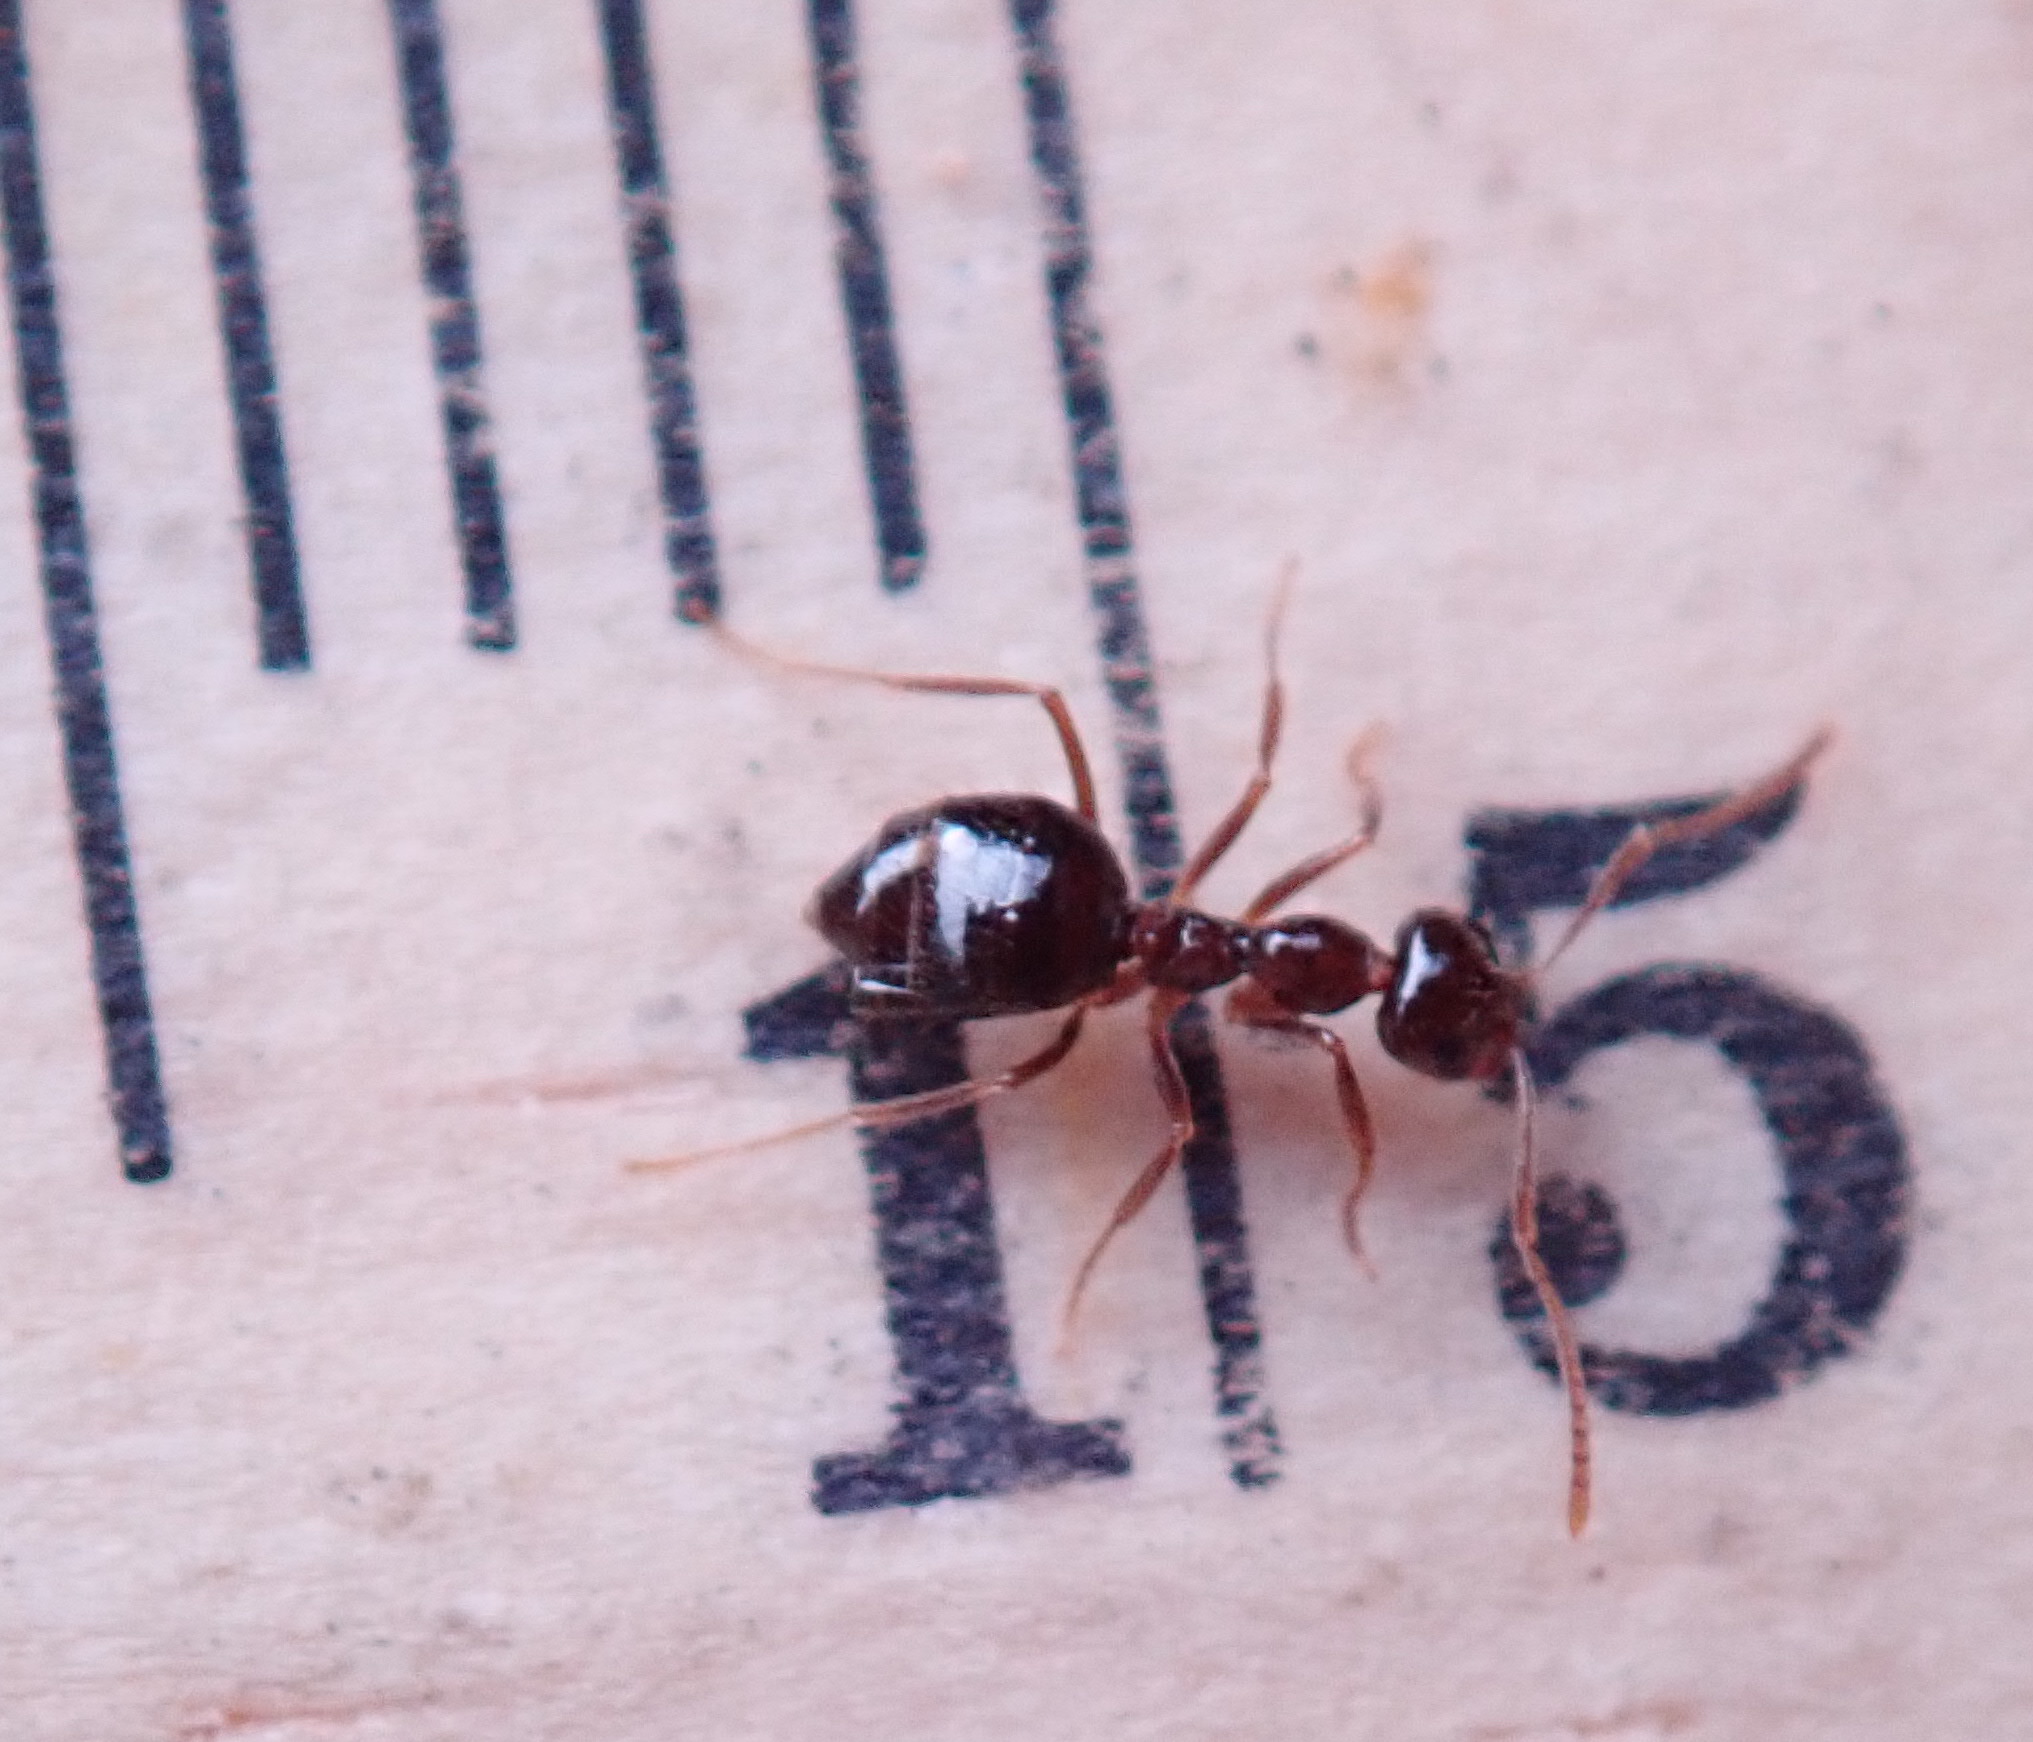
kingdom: Animalia
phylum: Arthropoda
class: Insecta
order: Hymenoptera
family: Formicidae
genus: Prenolepis
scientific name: Prenolepis imparis
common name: Small honey ant
